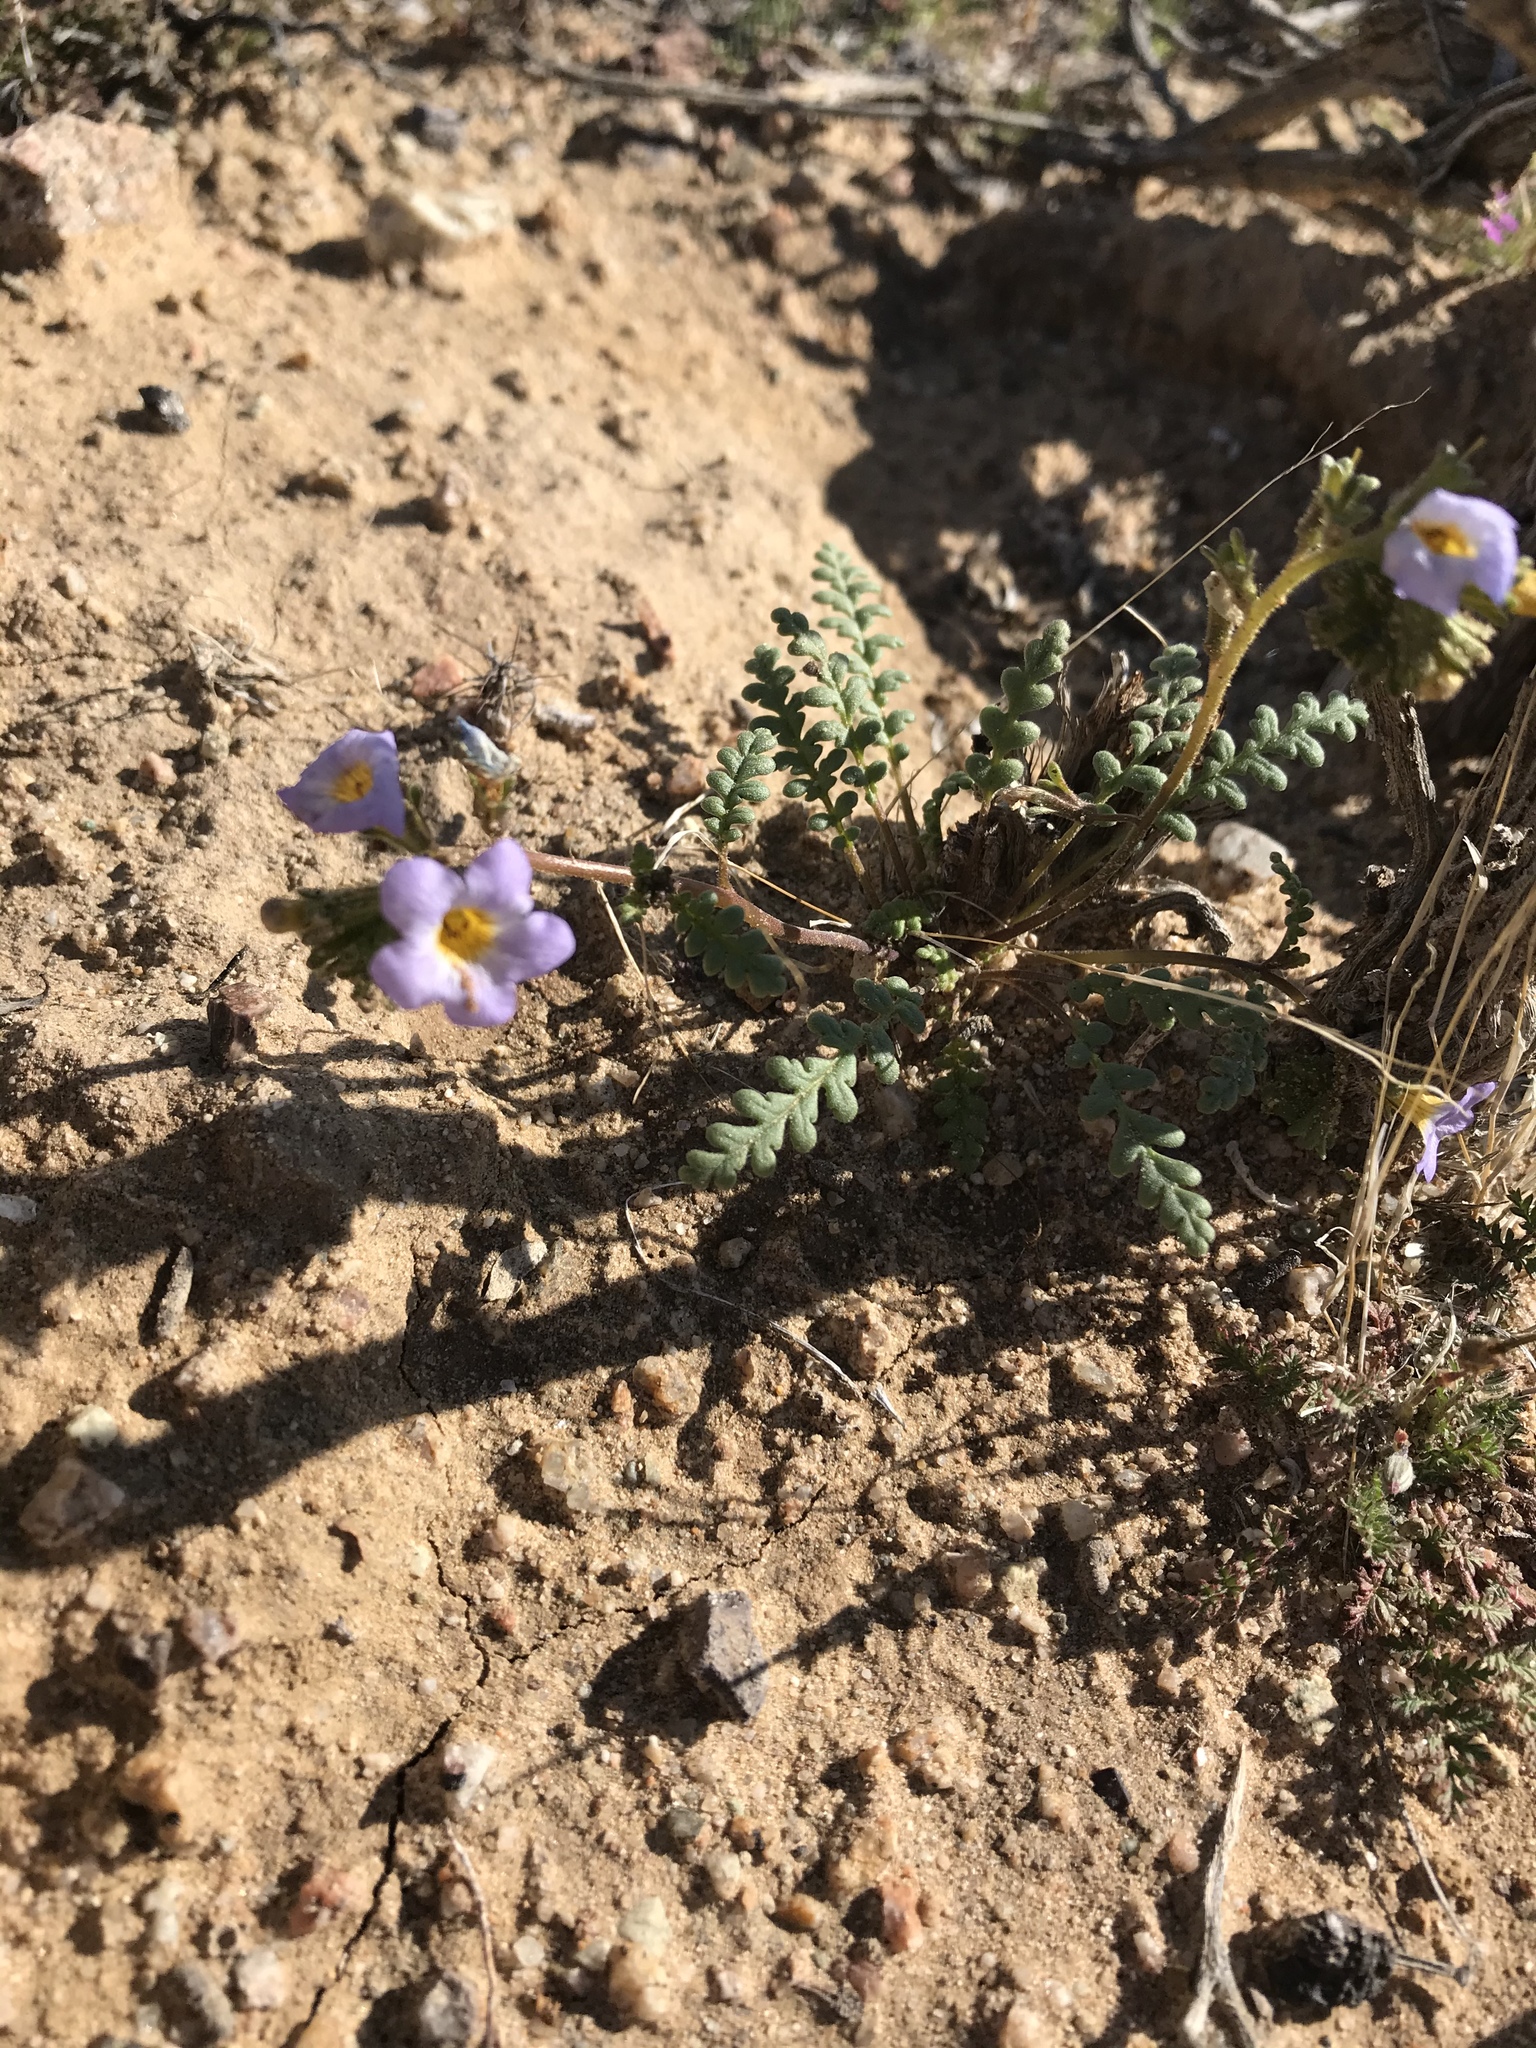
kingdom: Plantae
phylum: Tracheophyta
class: Magnoliopsida
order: Boraginales
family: Hydrophyllaceae
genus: Phacelia
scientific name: Phacelia fremontii
